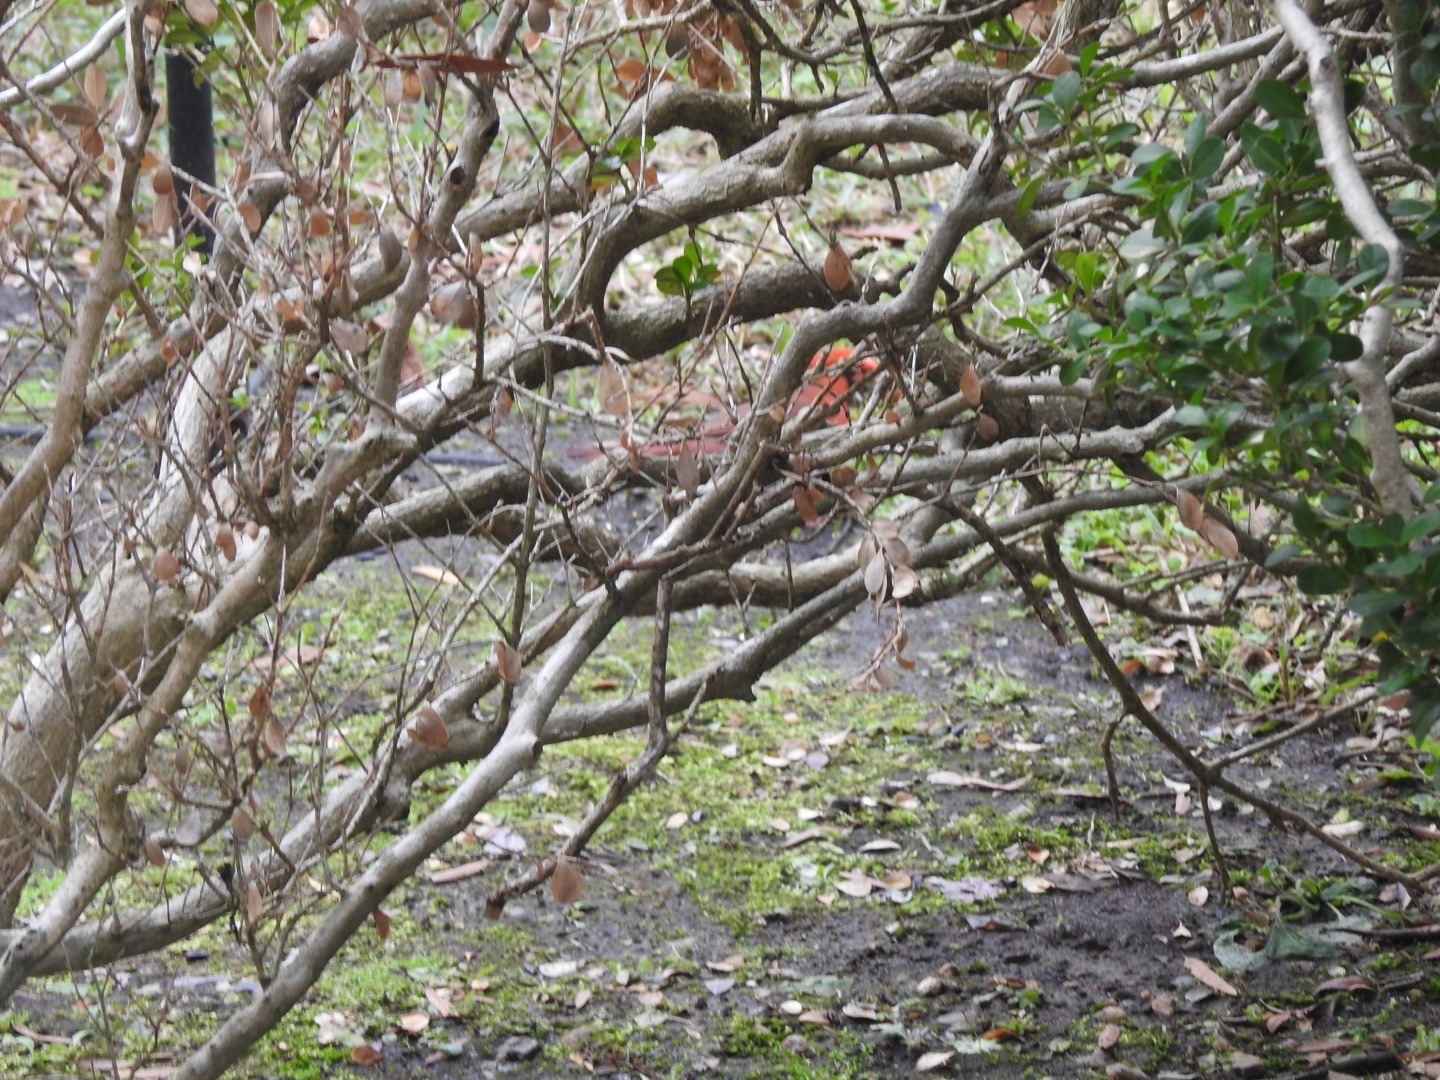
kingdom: Animalia
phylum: Chordata
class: Aves
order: Passeriformes
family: Cardinalidae
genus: Cardinalis
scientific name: Cardinalis cardinalis
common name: Northern cardinal
